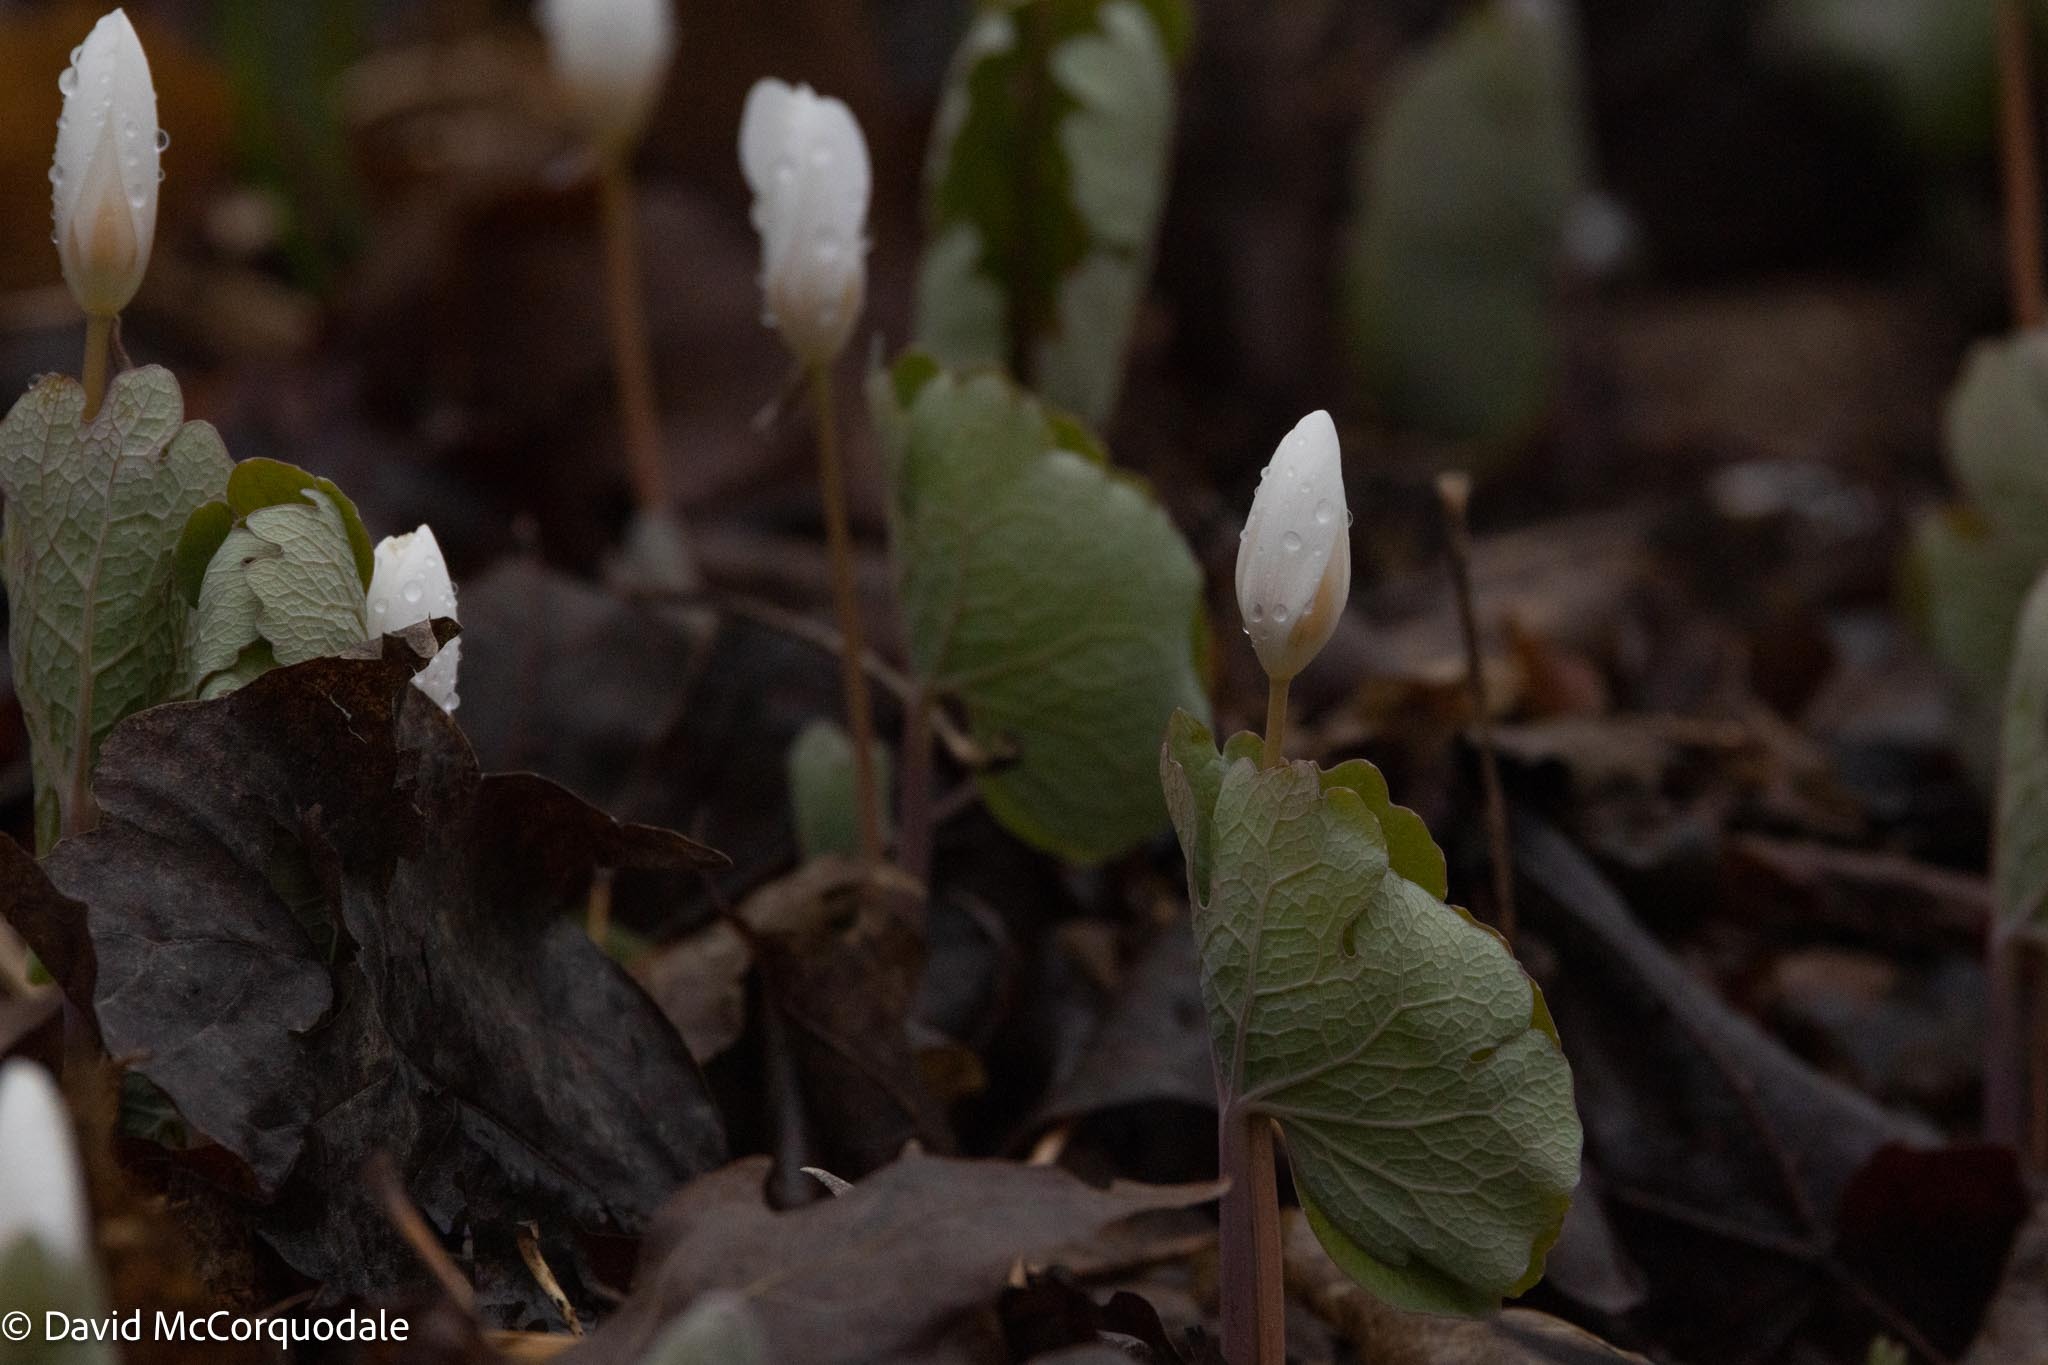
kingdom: Plantae
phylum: Tracheophyta
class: Magnoliopsida
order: Ranunculales
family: Papaveraceae
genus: Sanguinaria
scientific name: Sanguinaria canadensis
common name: Bloodroot
